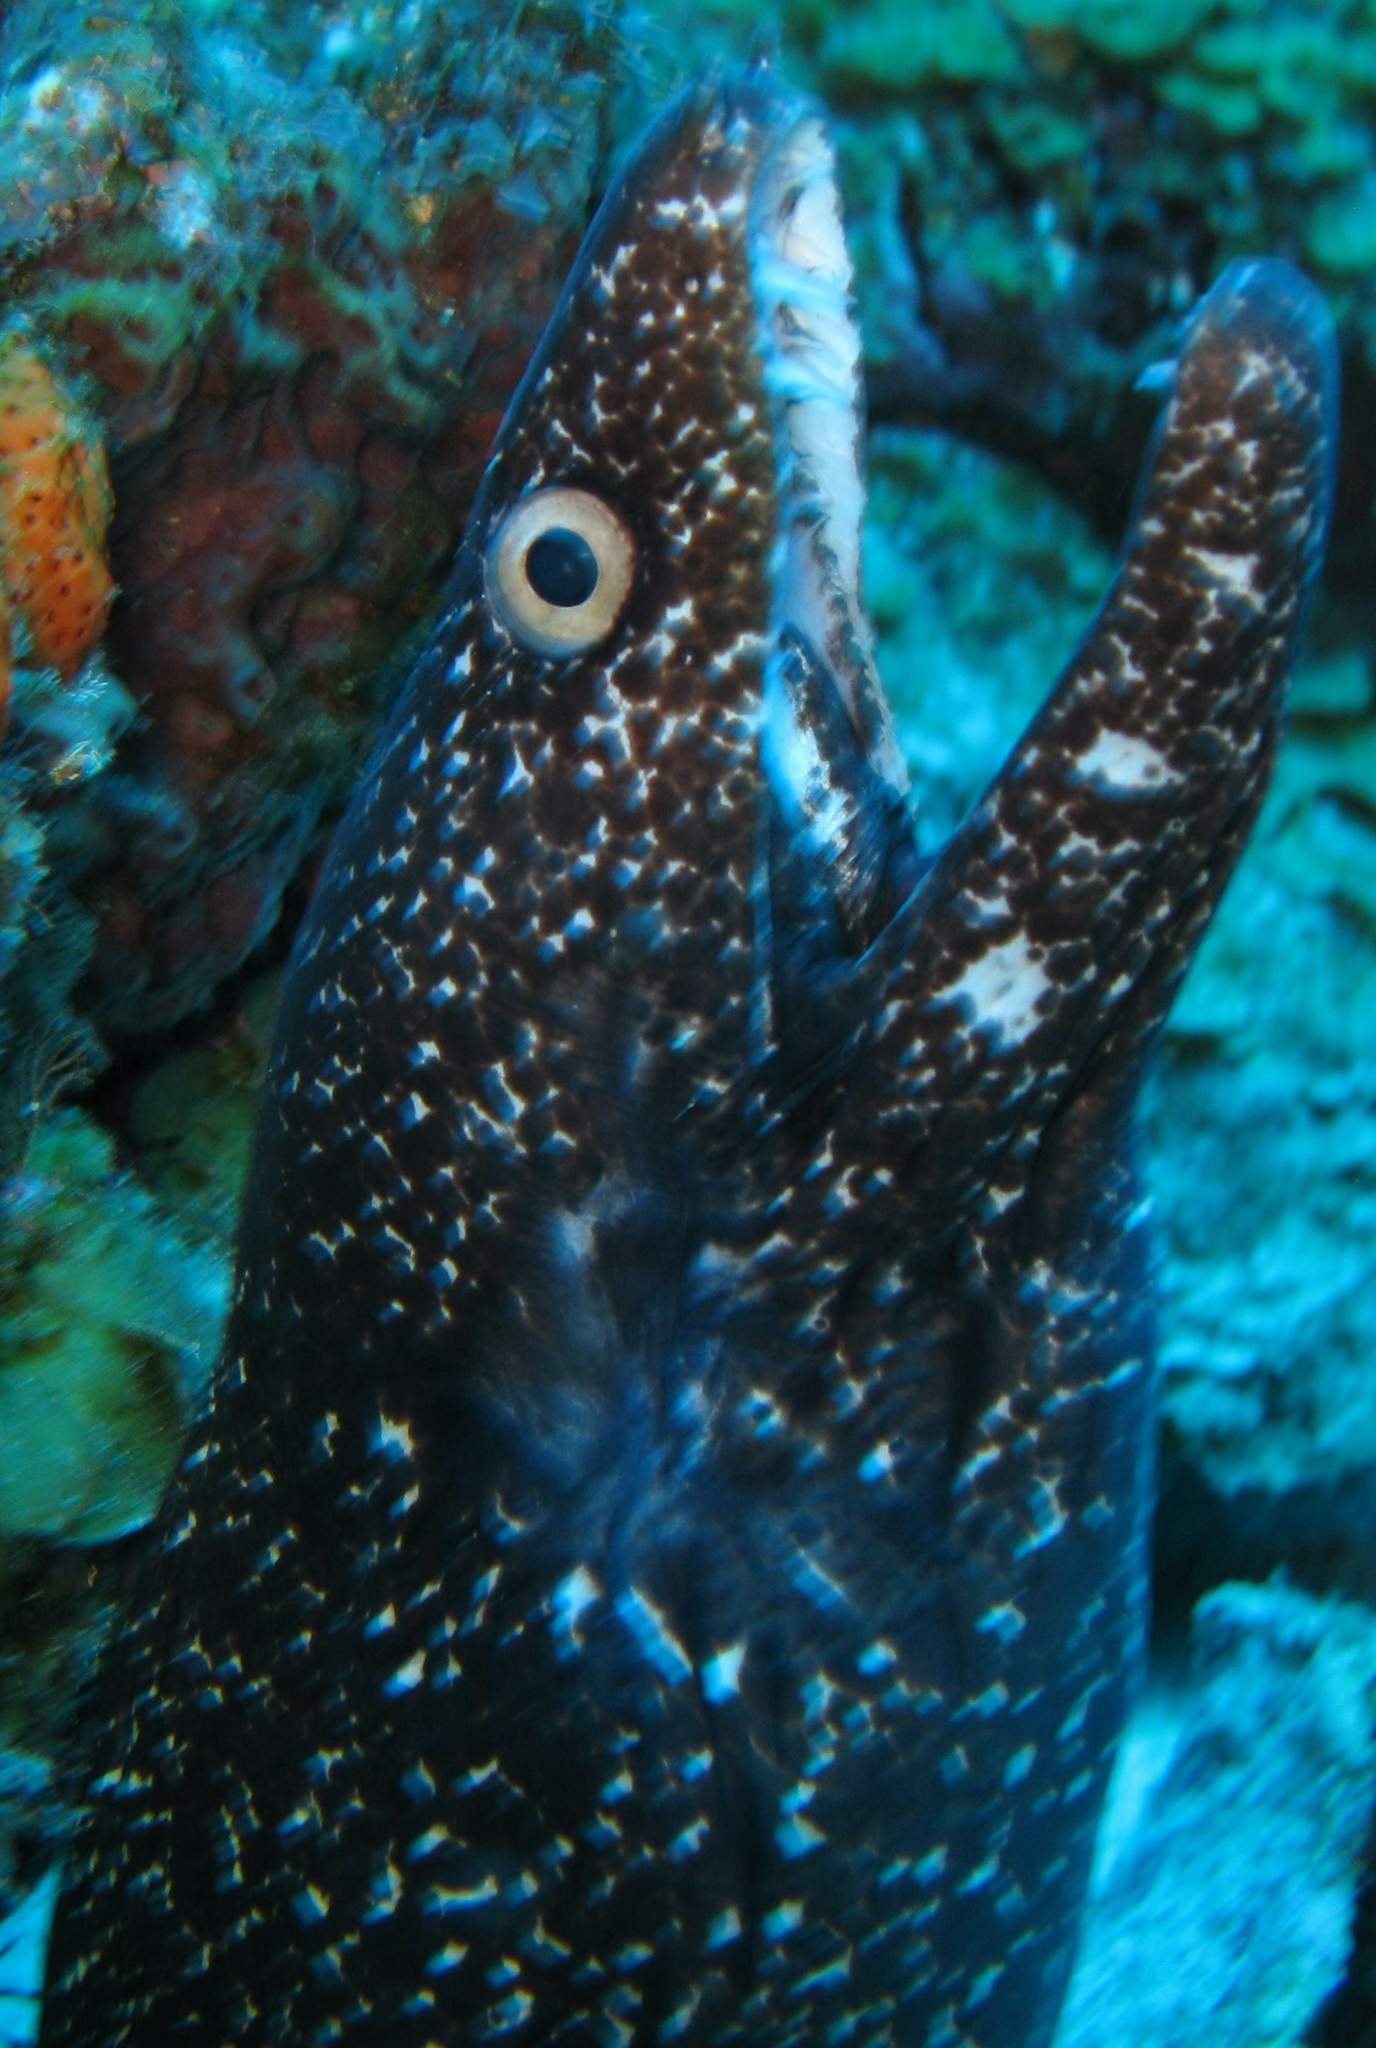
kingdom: Animalia
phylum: Chordata
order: Anguilliformes
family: Muraenidae
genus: Gymnothorax
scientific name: Gymnothorax moringa
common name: Spotted moray
